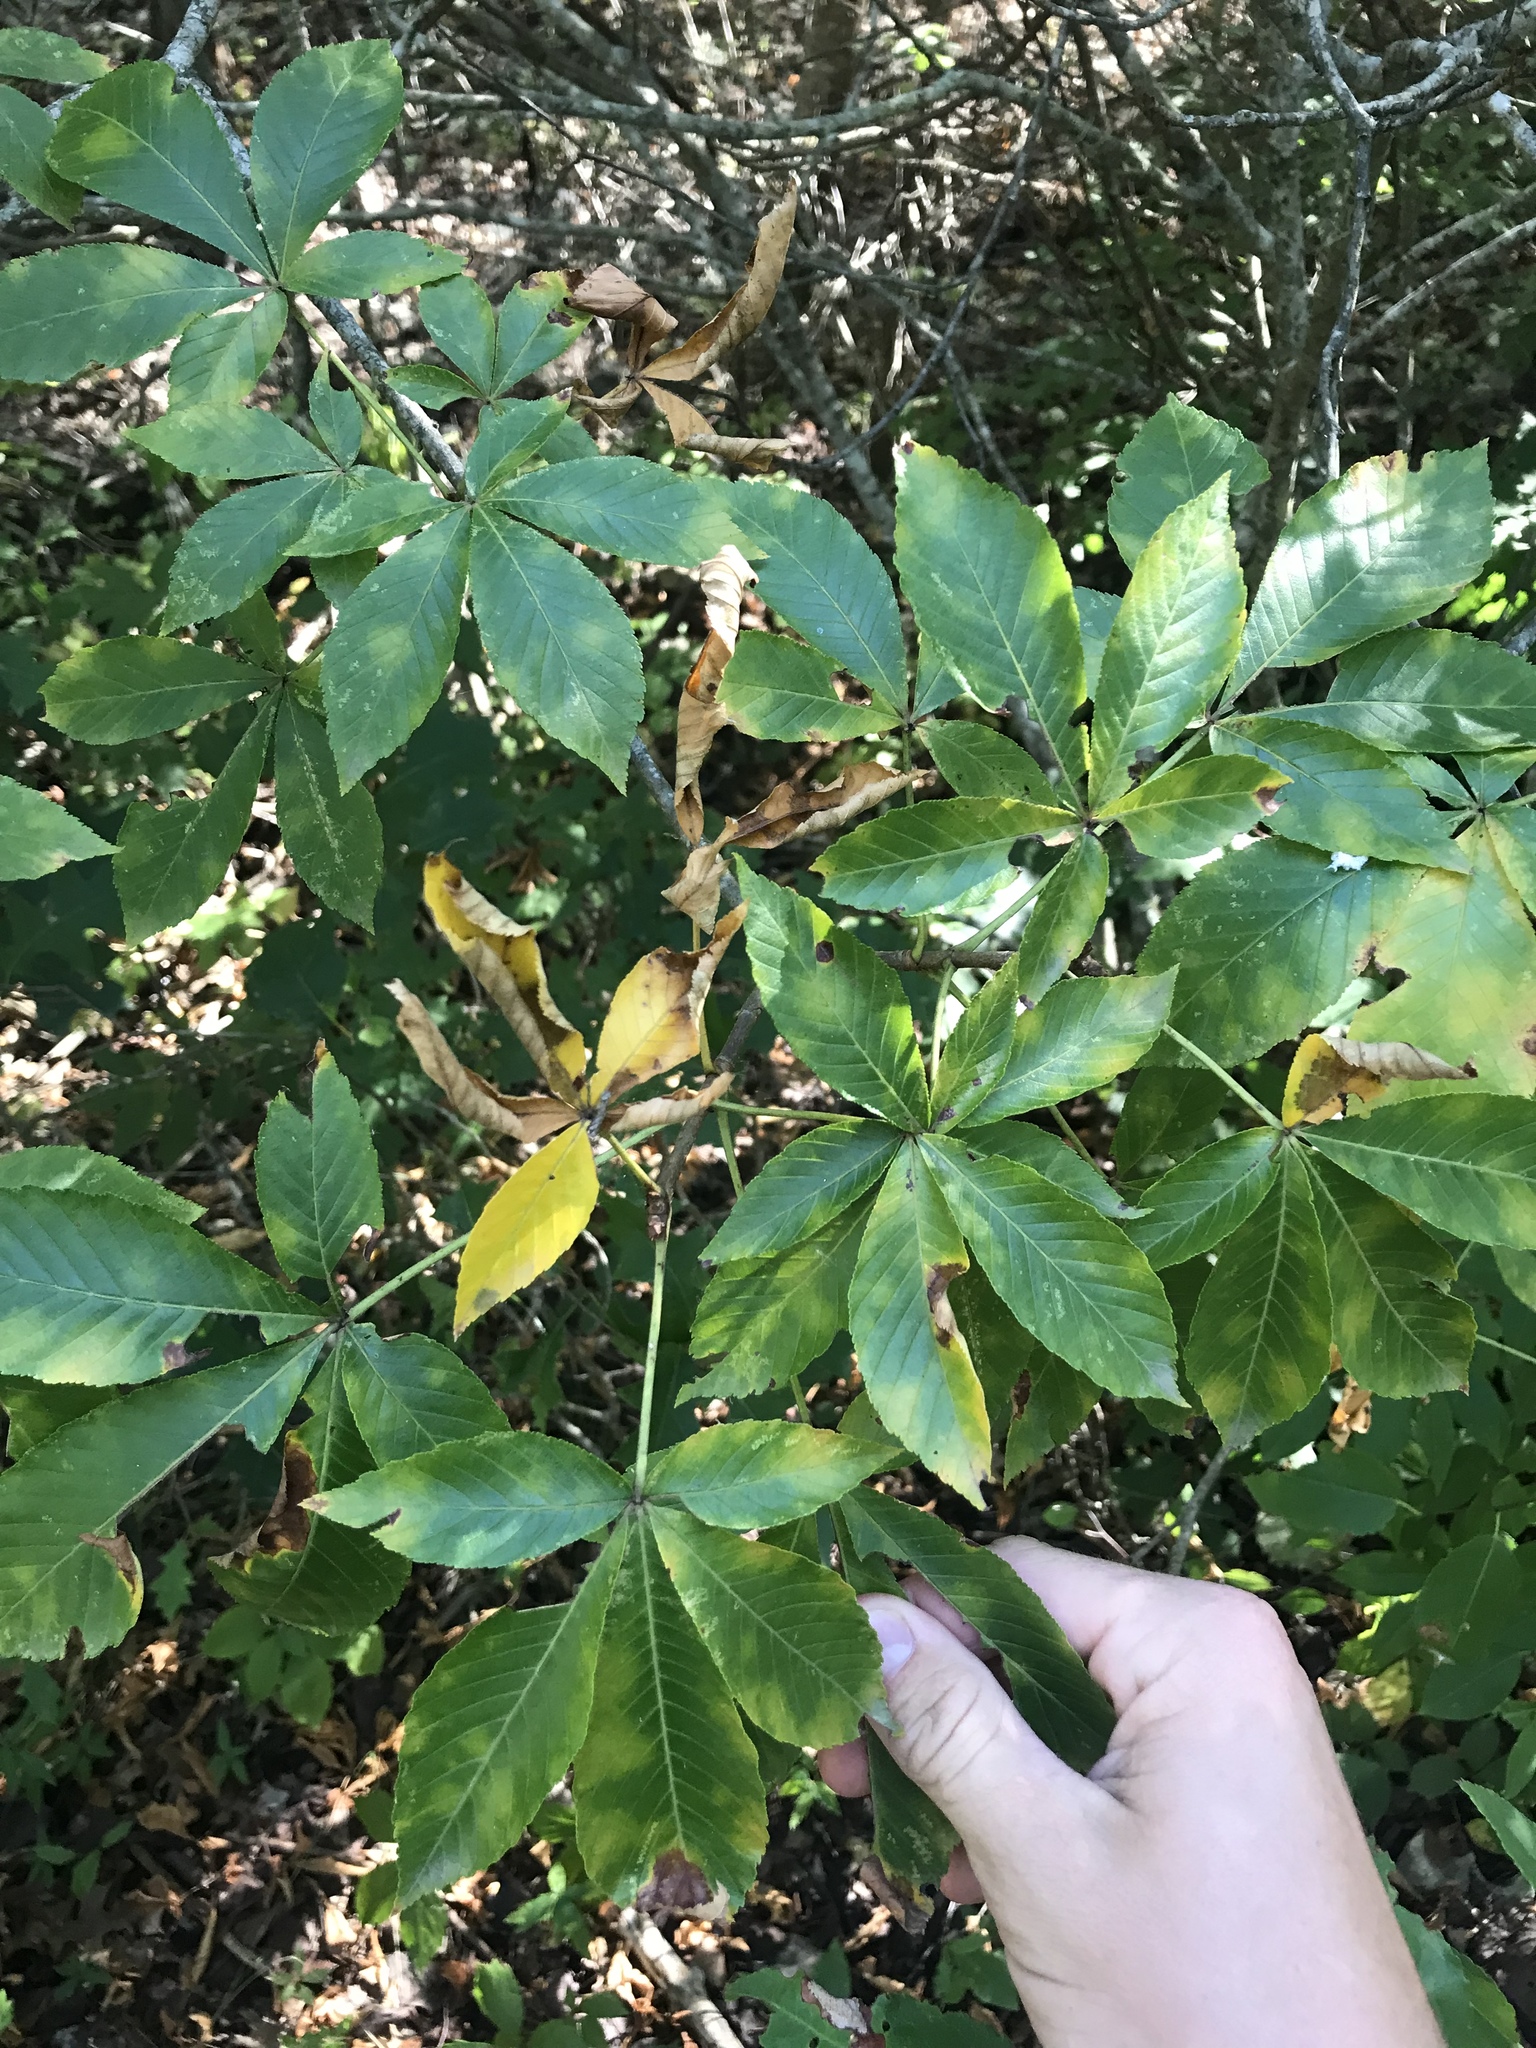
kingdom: Plantae
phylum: Tracheophyta
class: Magnoliopsida
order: Sapindales
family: Sapindaceae
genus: Aesculus
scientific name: Aesculus pavia
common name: Red buckeye
